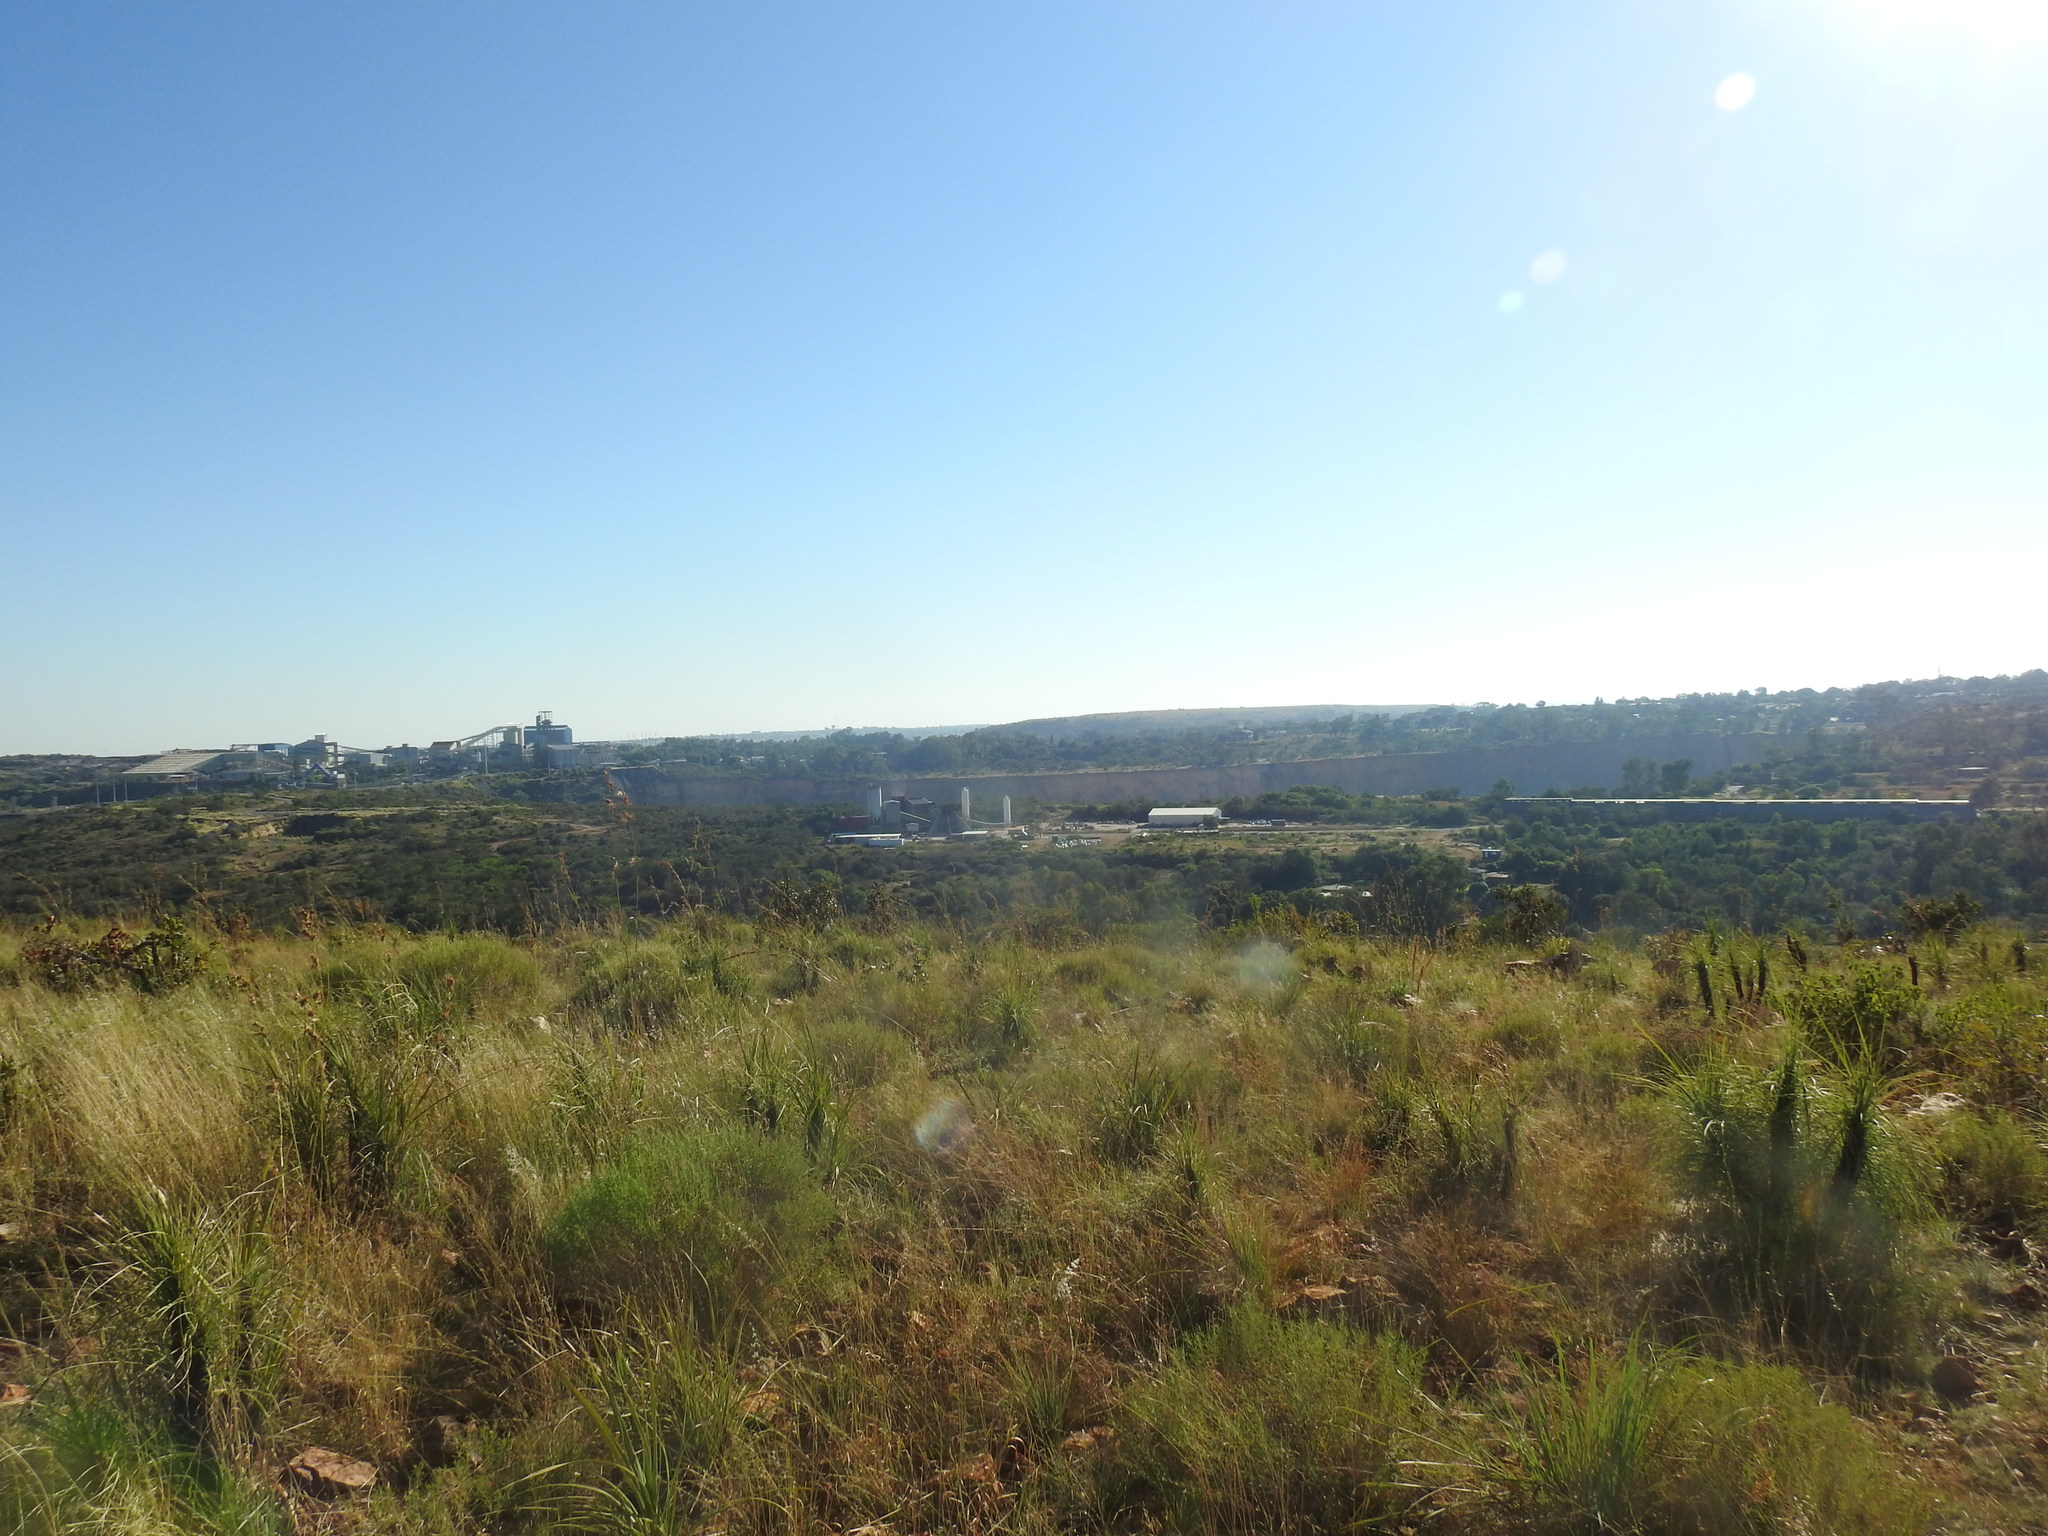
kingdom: Plantae
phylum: Tracheophyta
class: Liliopsida
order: Pandanales
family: Velloziaceae
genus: Xerophyta
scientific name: Xerophyta retinervis
